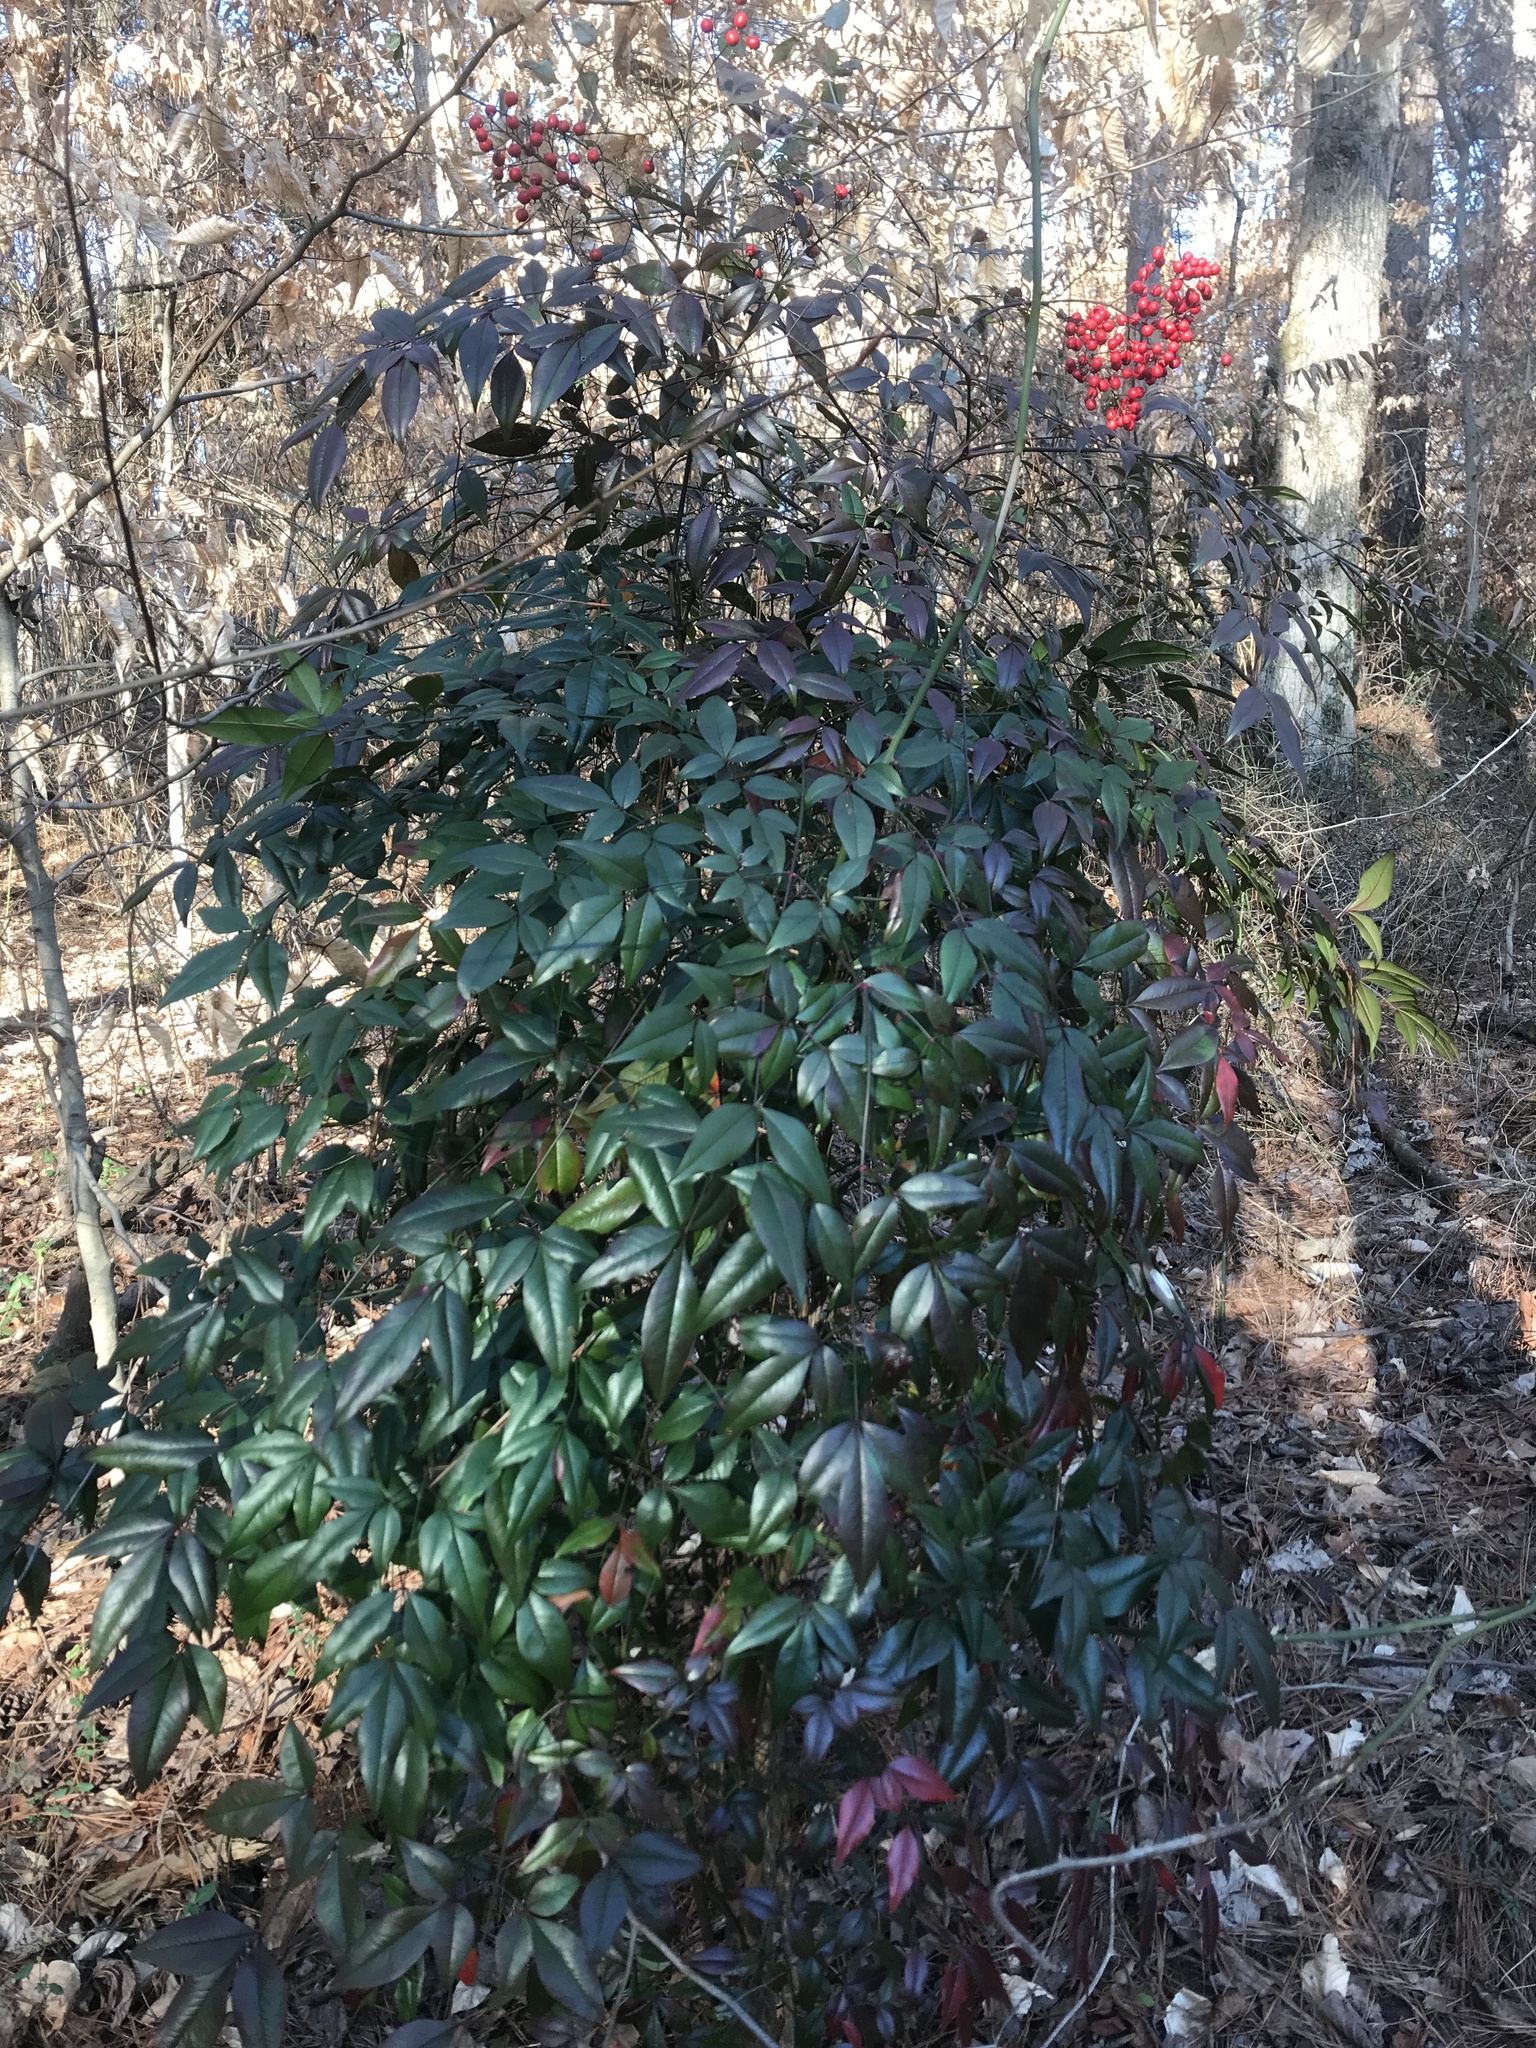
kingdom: Plantae
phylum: Tracheophyta
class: Magnoliopsida
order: Ranunculales
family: Berberidaceae
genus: Nandina
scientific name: Nandina domestica
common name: Sacred bamboo
